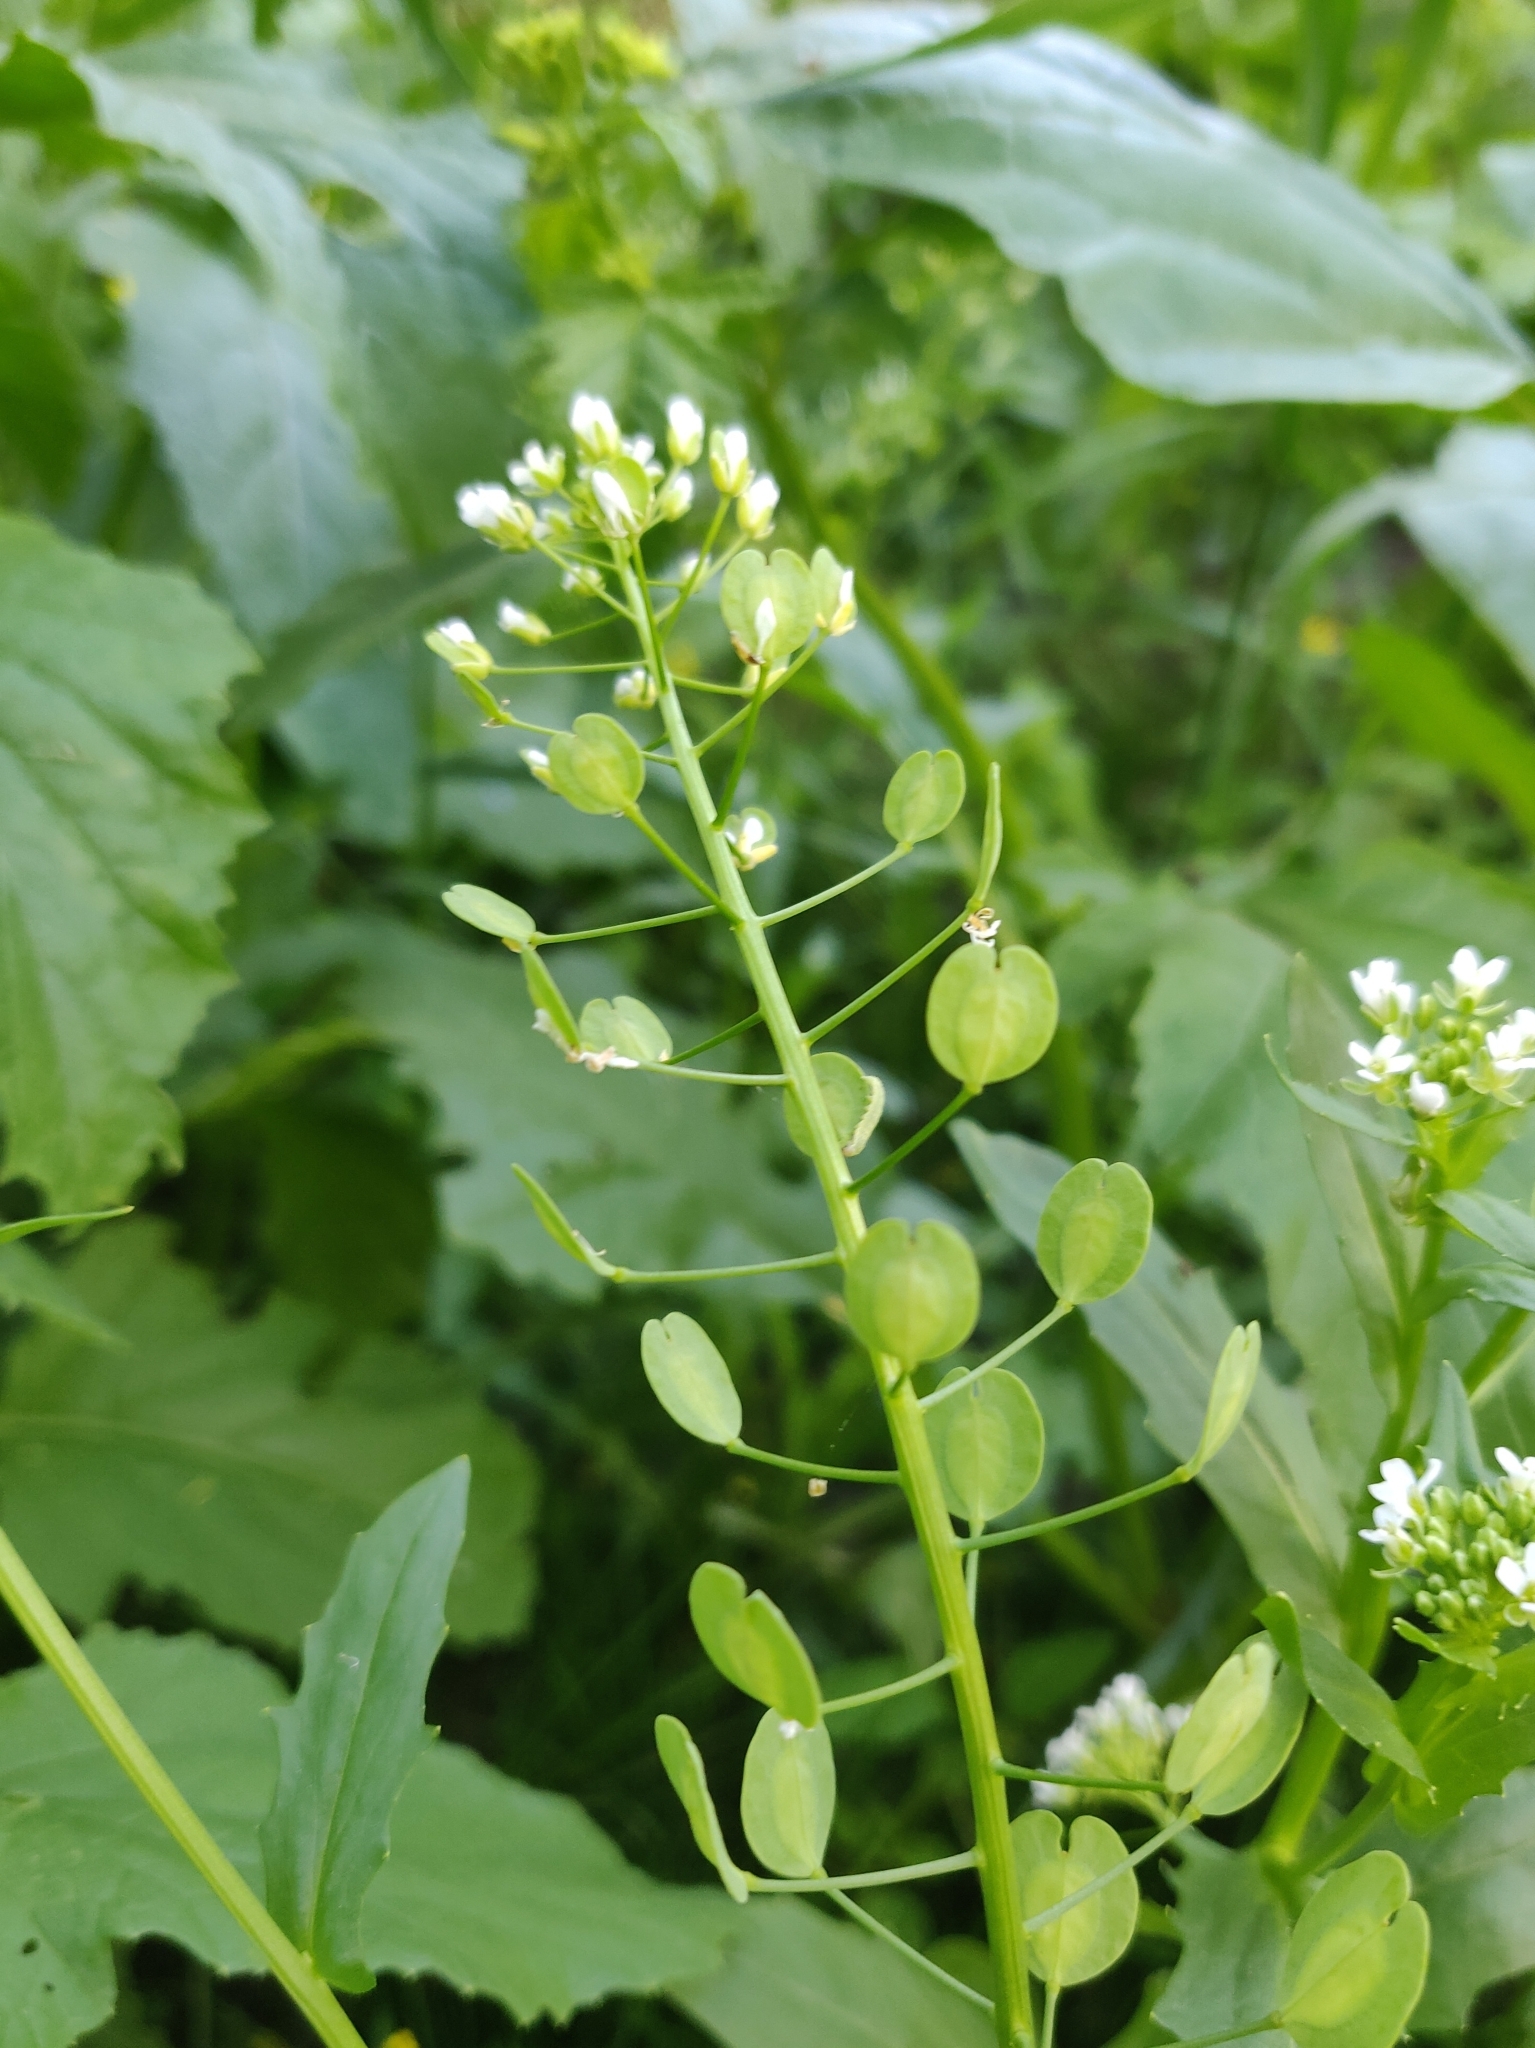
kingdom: Plantae
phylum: Tracheophyta
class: Magnoliopsida
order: Brassicales
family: Brassicaceae
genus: Thlaspi
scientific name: Thlaspi arvense
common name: Field pennycress
